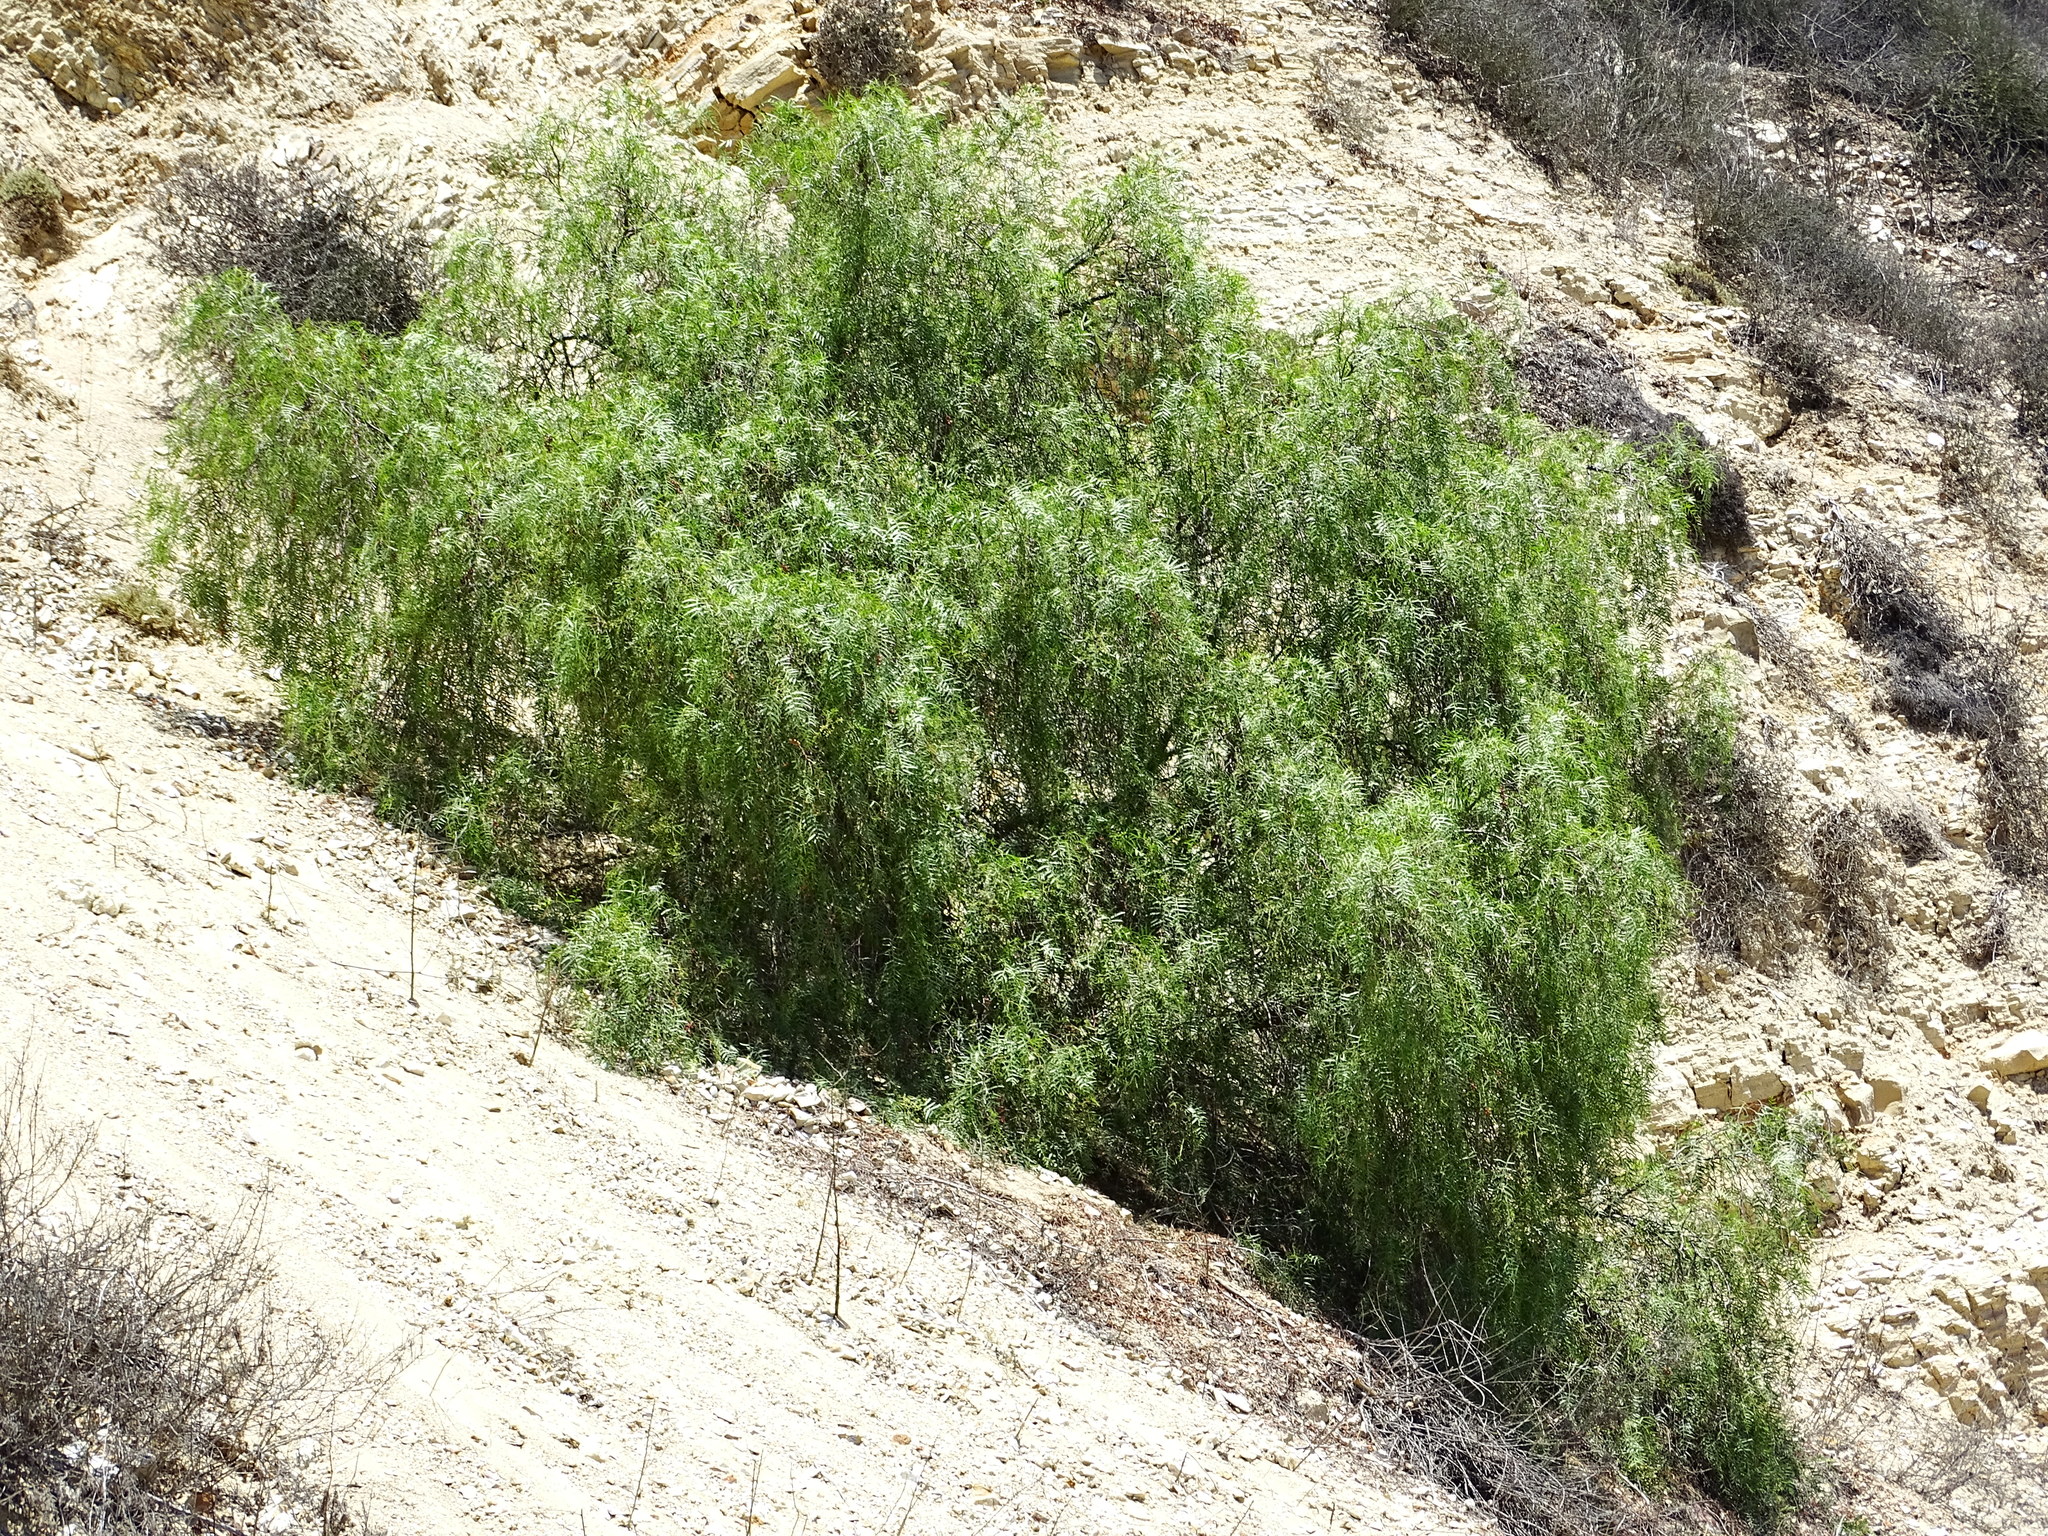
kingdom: Plantae
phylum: Tracheophyta
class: Magnoliopsida
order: Sapindales
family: Anacardiaceae
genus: Schinus
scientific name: Schinus molle
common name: Peruvian peppertree
